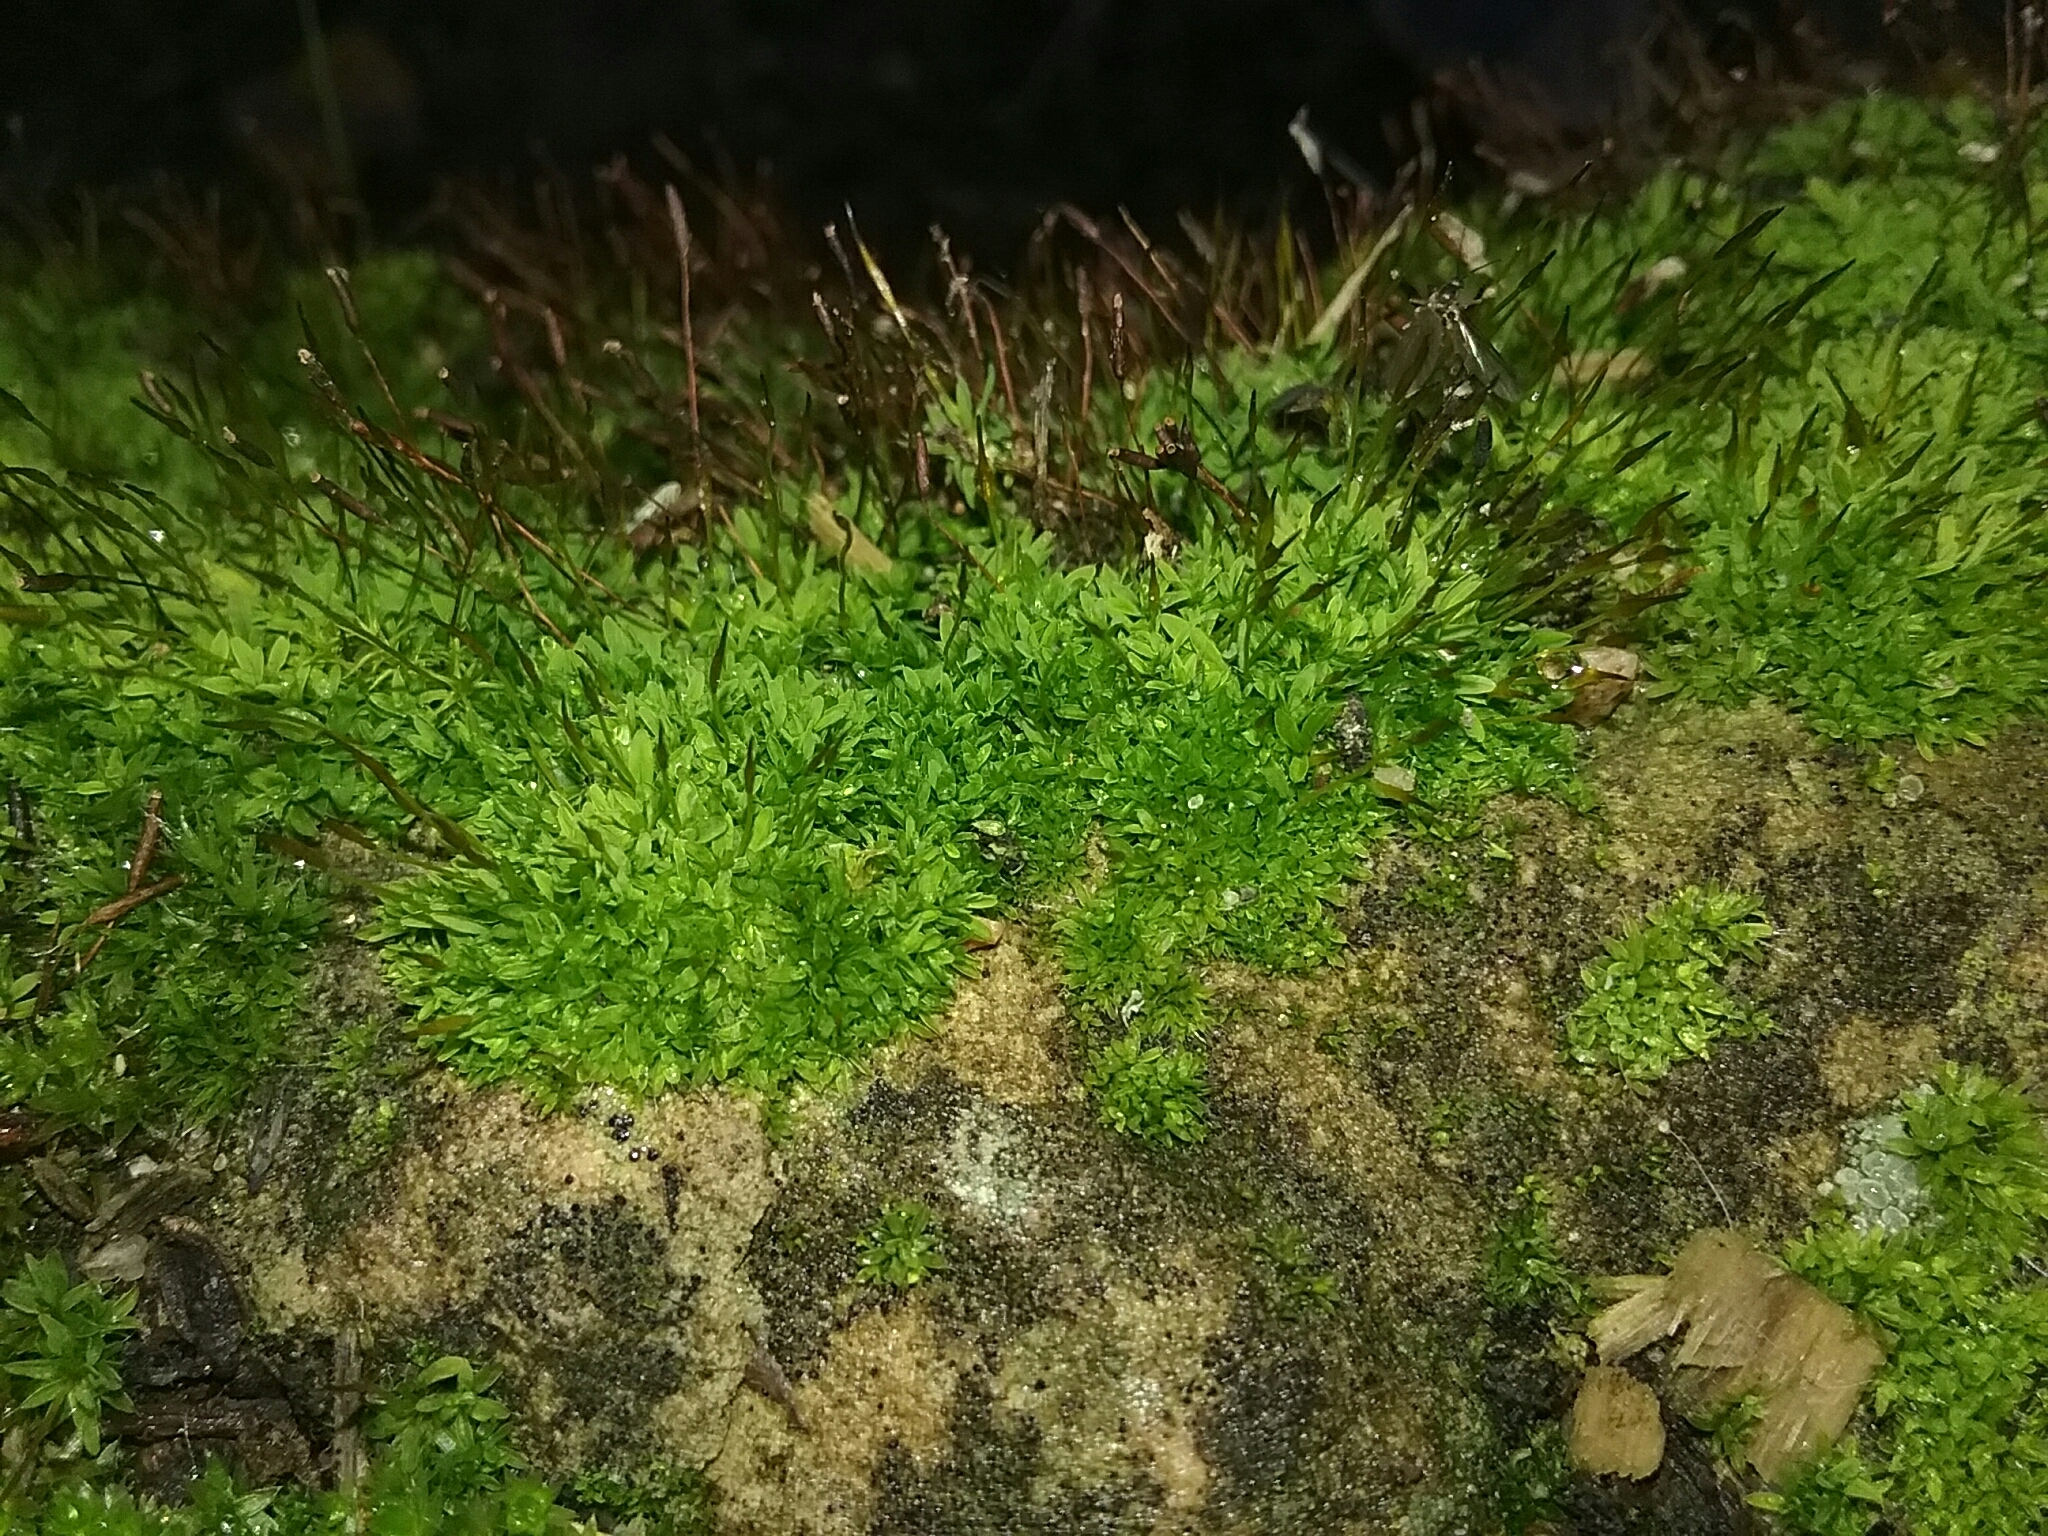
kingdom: Plantae
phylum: Bryophyta
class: Bryopsida
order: Pottiales
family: Pottiaceae
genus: Tortula
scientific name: Tortula muralis
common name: Wall screw-moss
